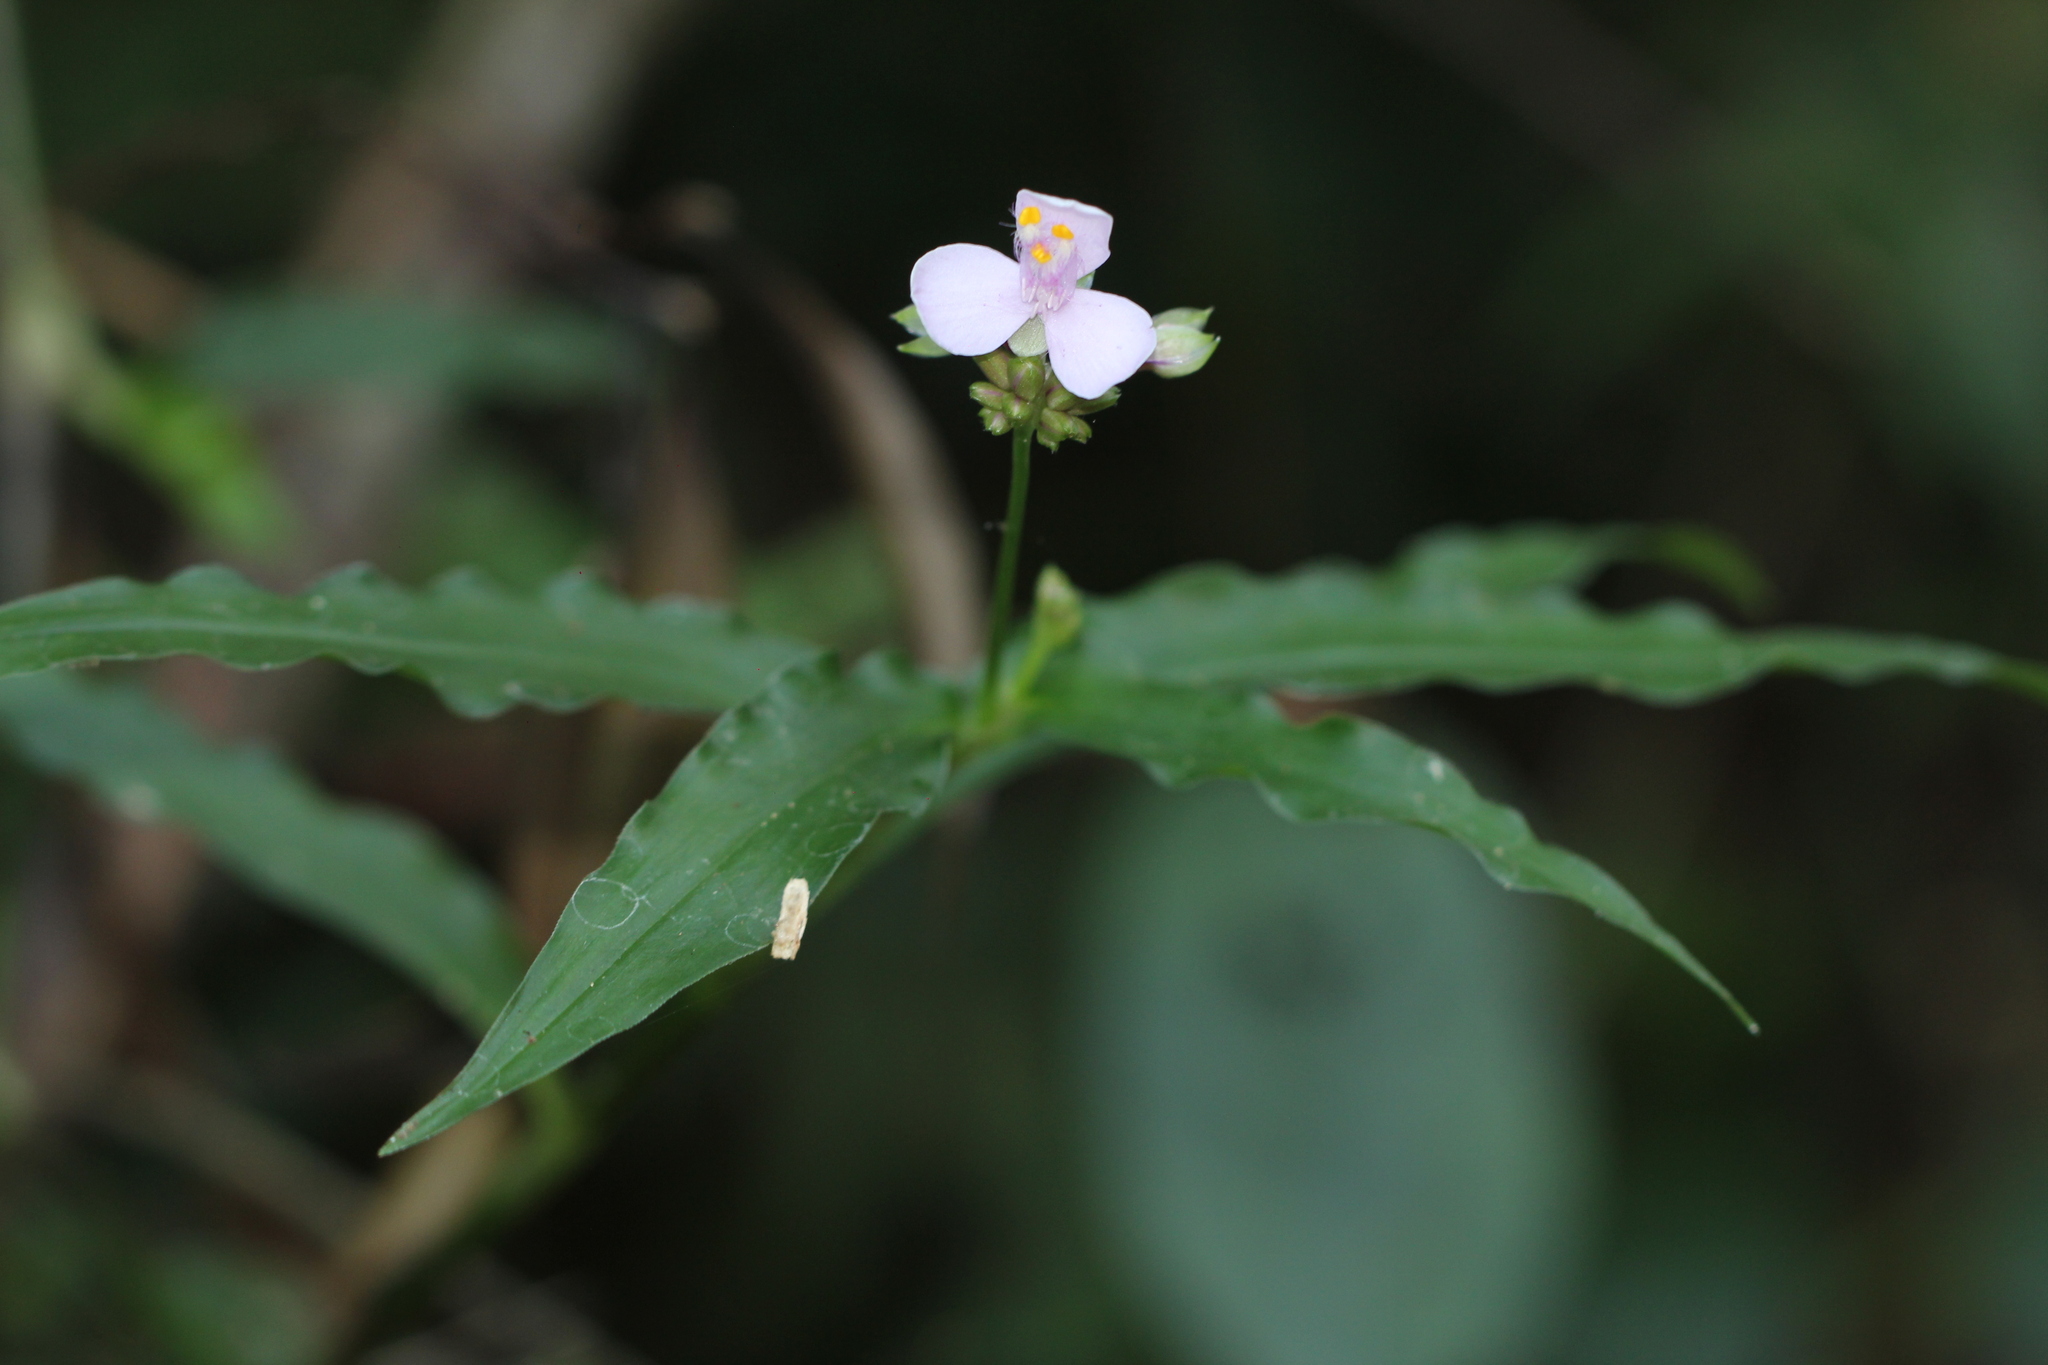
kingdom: Plantae
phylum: Tracheophyta
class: Liliopsida
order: Commelinales
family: Commelinaceae
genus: Callisia
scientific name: Callisia diuretica
